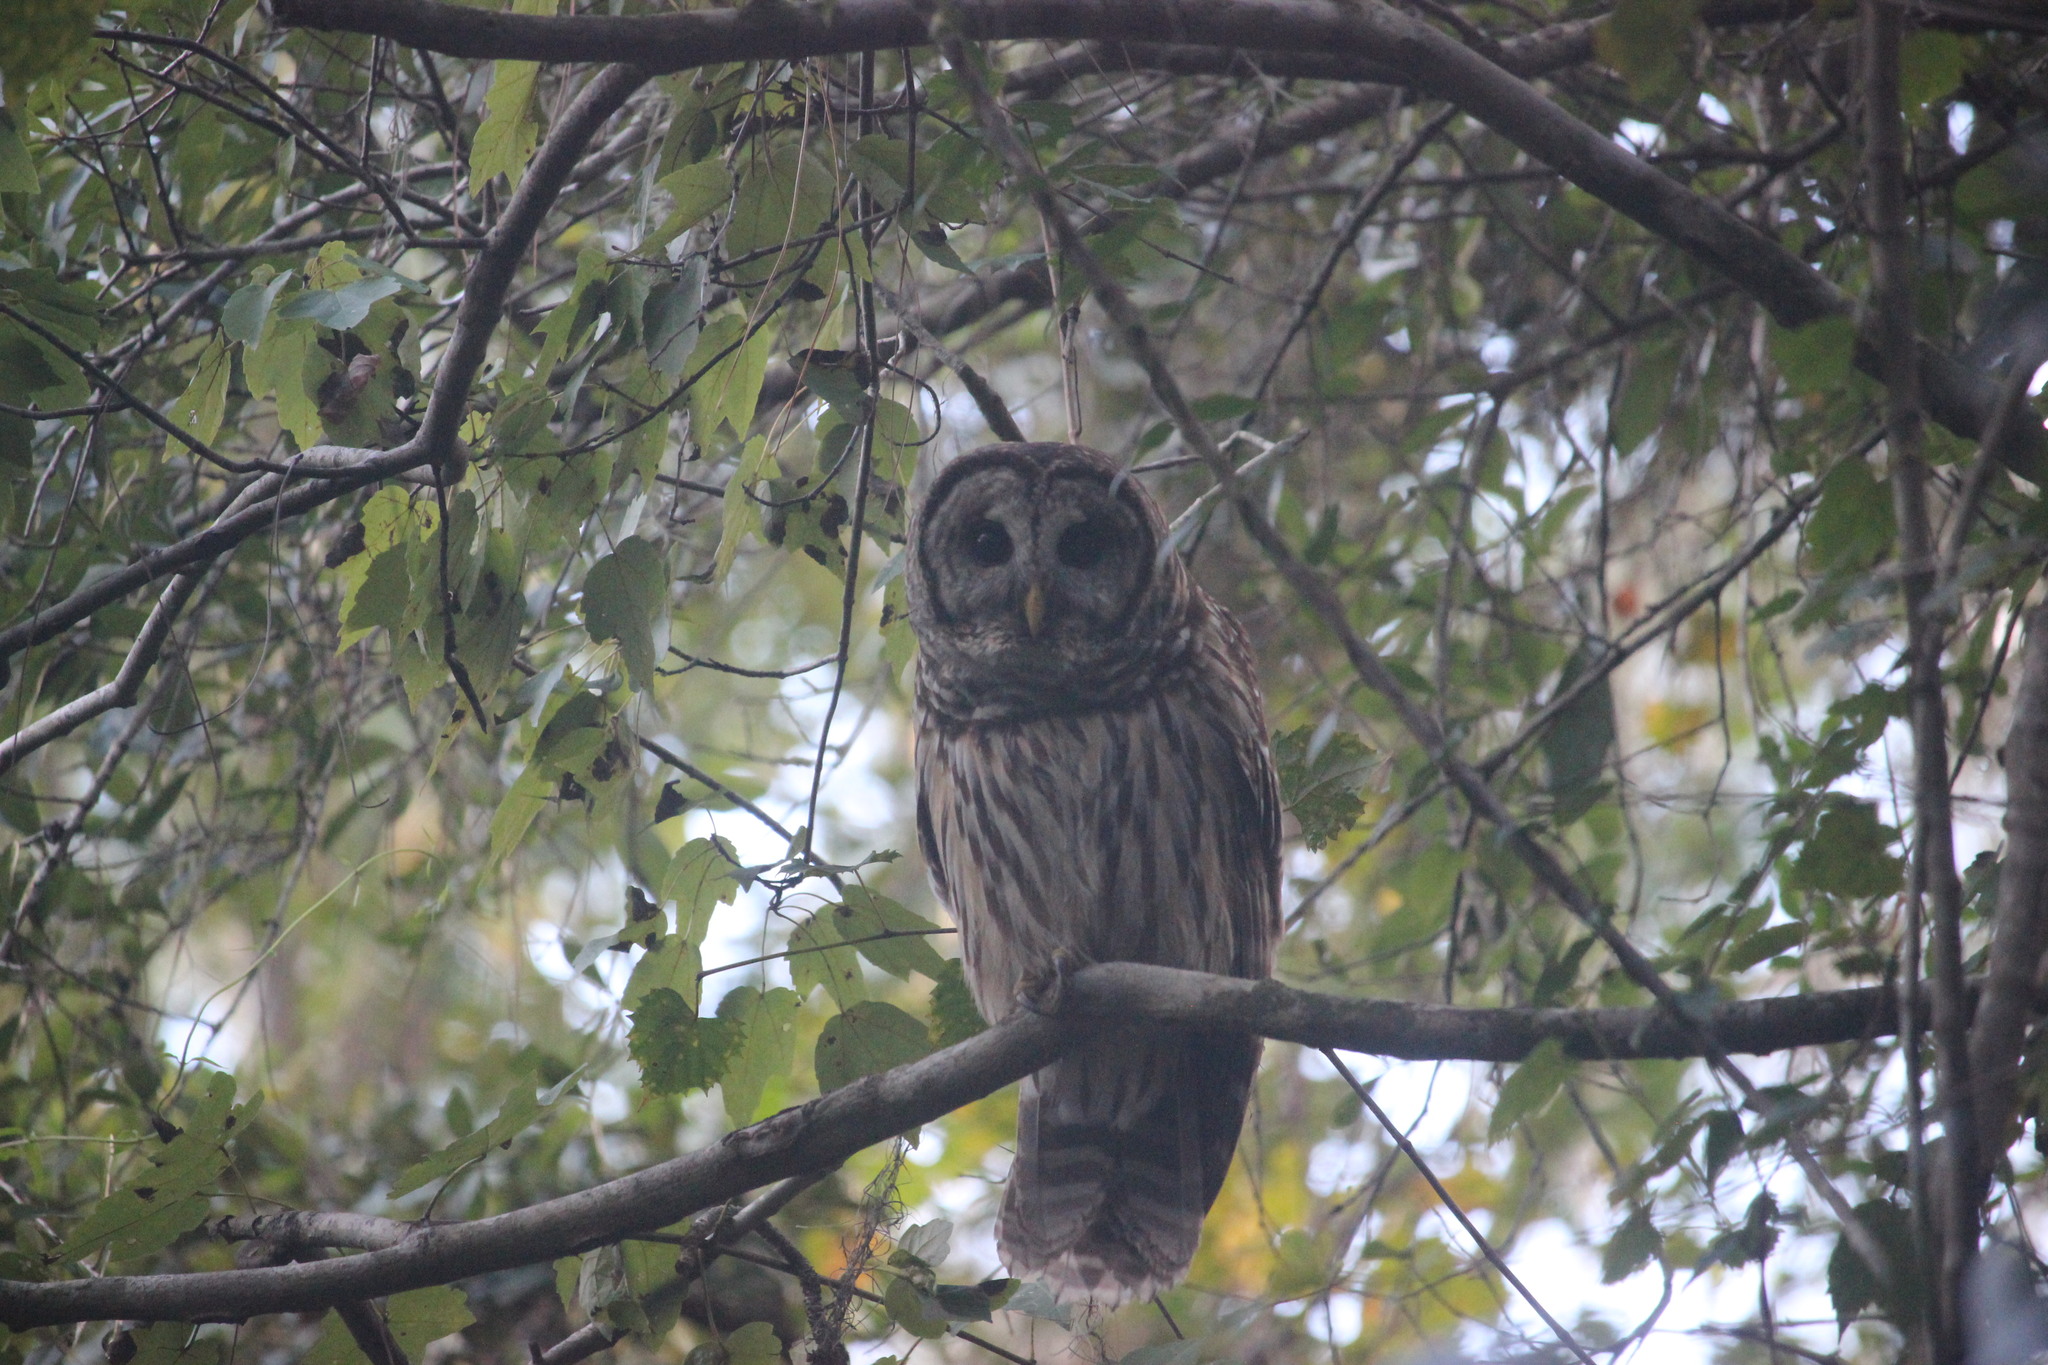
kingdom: Animalia
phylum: Chordata
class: Aves
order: Strigiformes
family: Strigidae
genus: Strix
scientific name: Strix varia
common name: Barred owl
